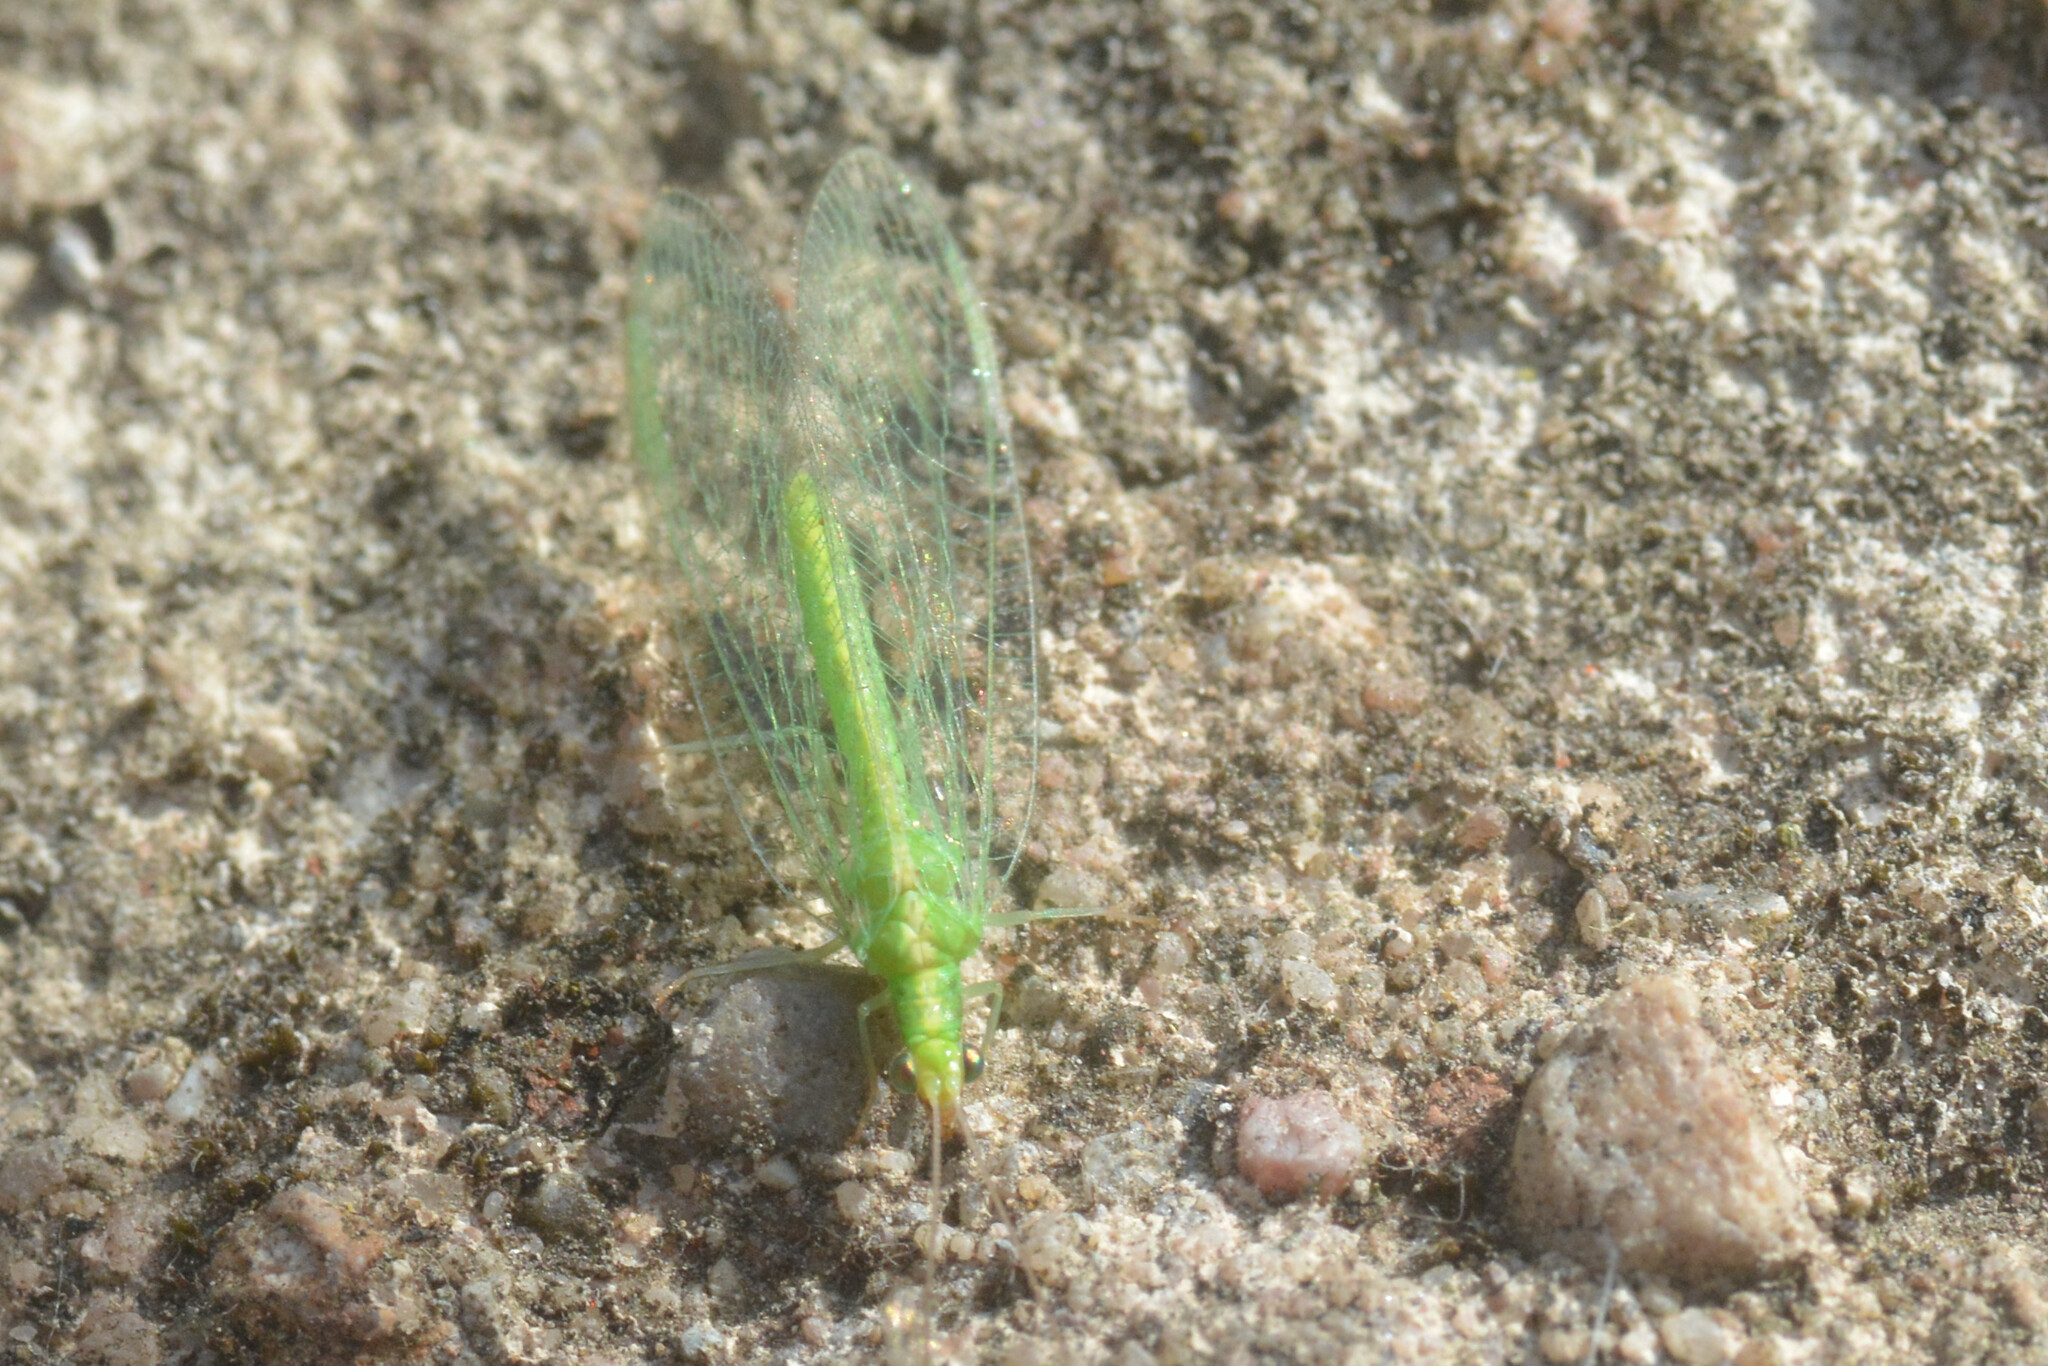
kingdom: Animalia
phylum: Arthropoda
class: Insecta
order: Neuroptera
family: Chrysopidae
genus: Chrysoperla
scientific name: Chrysoperla
